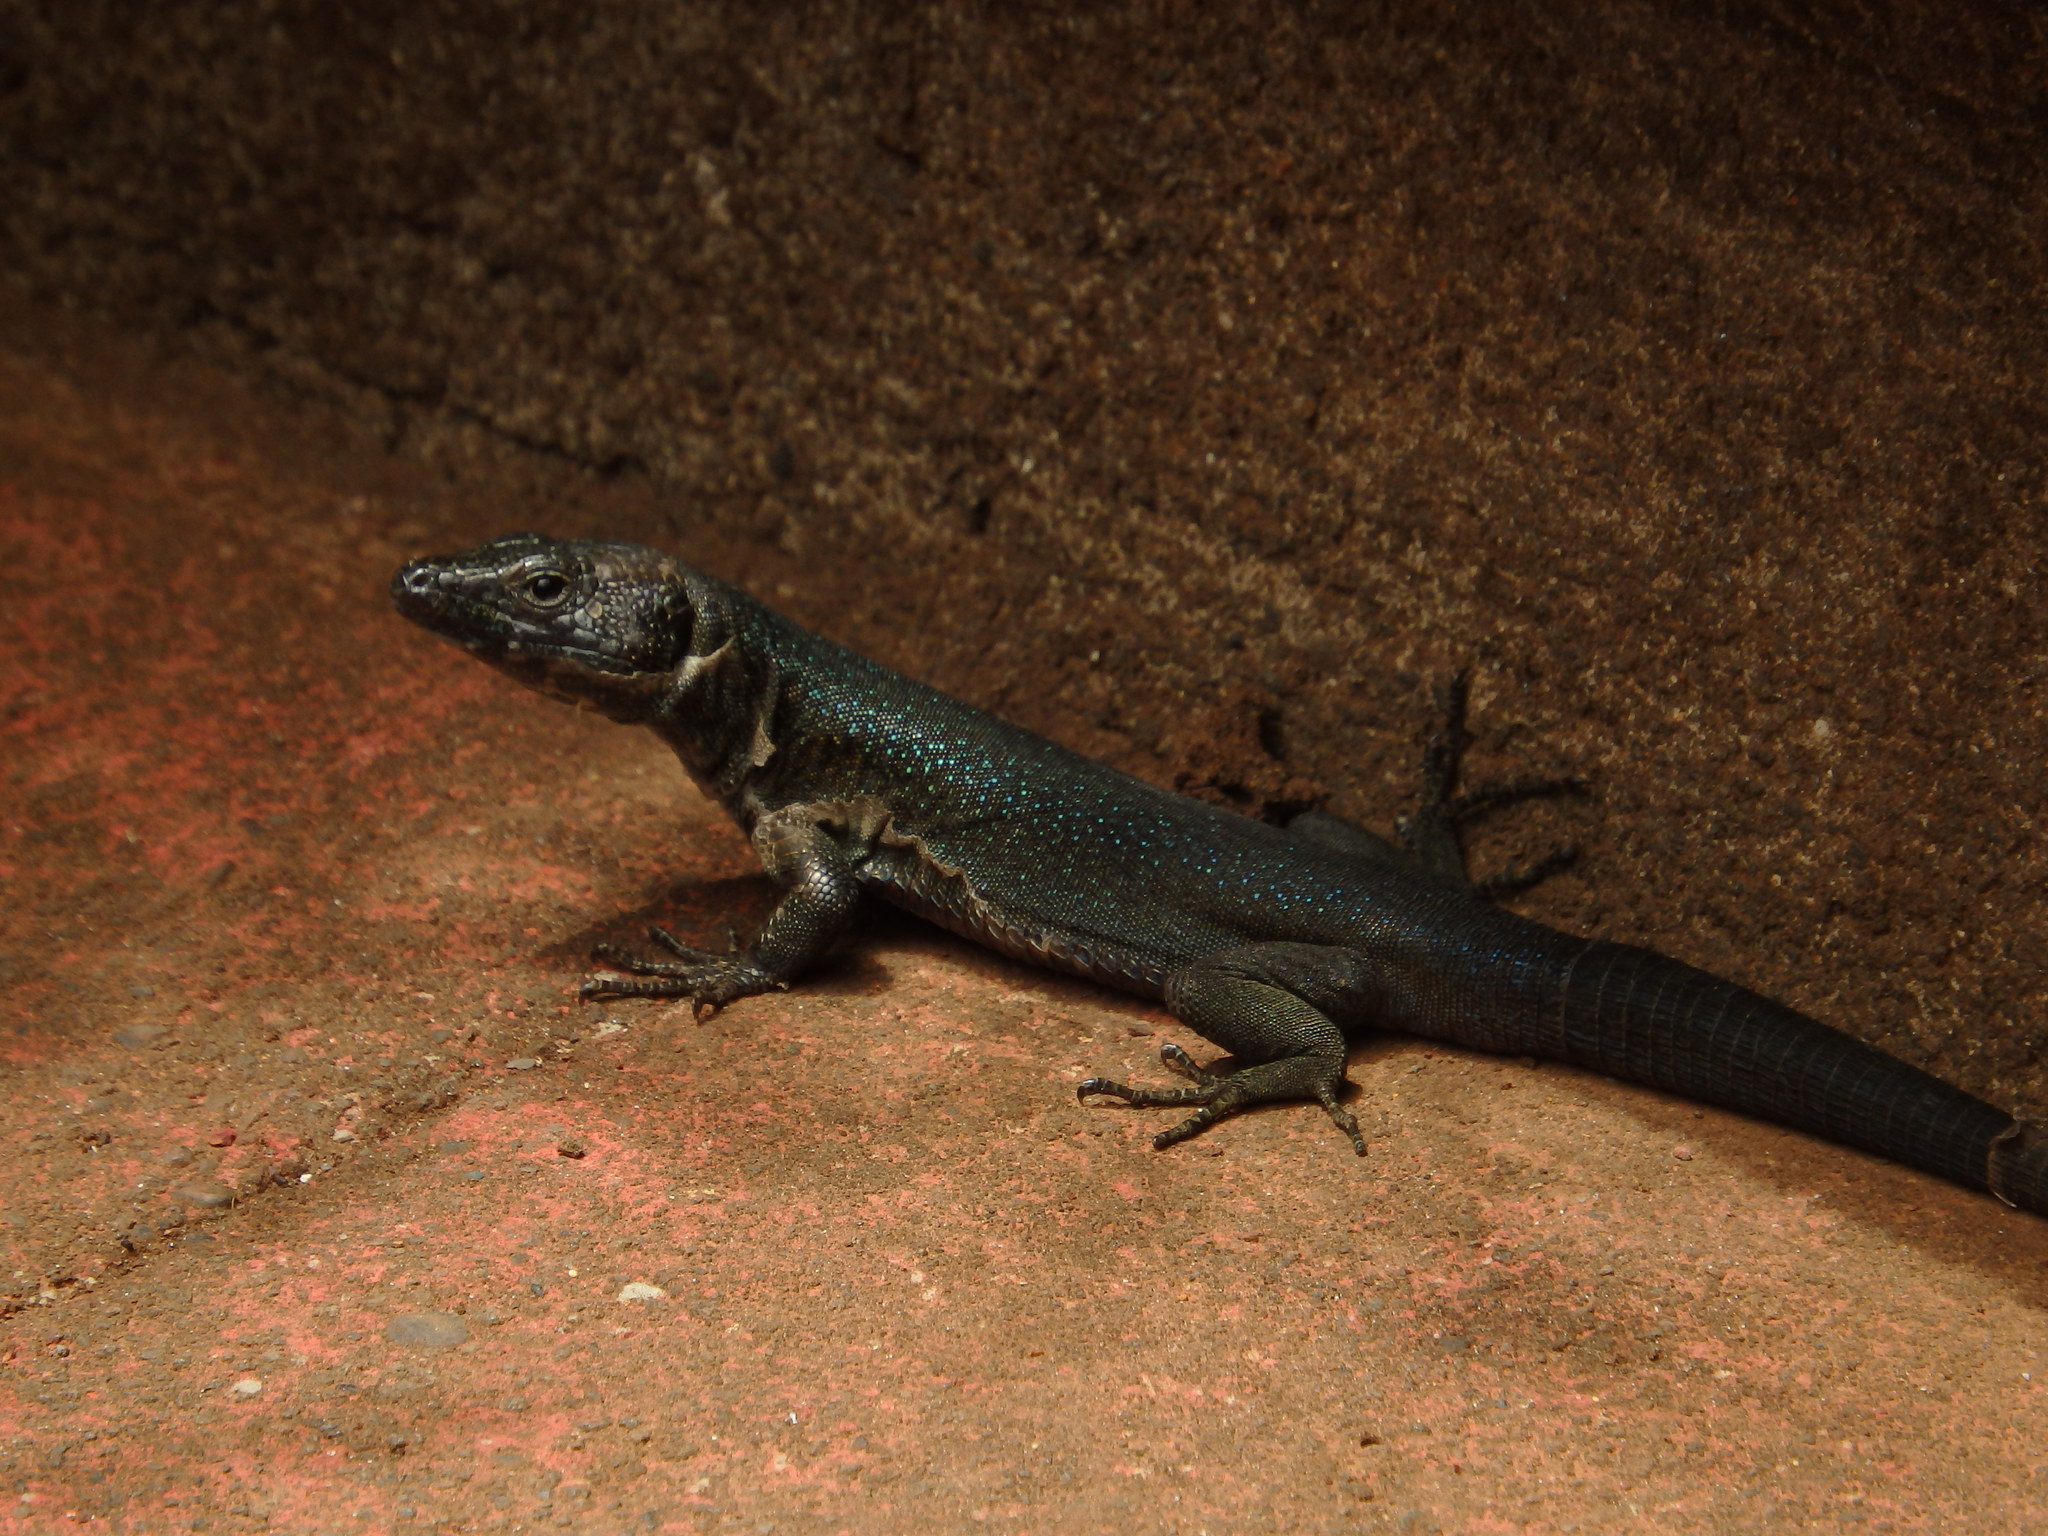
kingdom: Animalia
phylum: Chordata
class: Squamata
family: Lacertidae
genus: Teira
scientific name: Teira dugesii
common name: Madeira lizard
